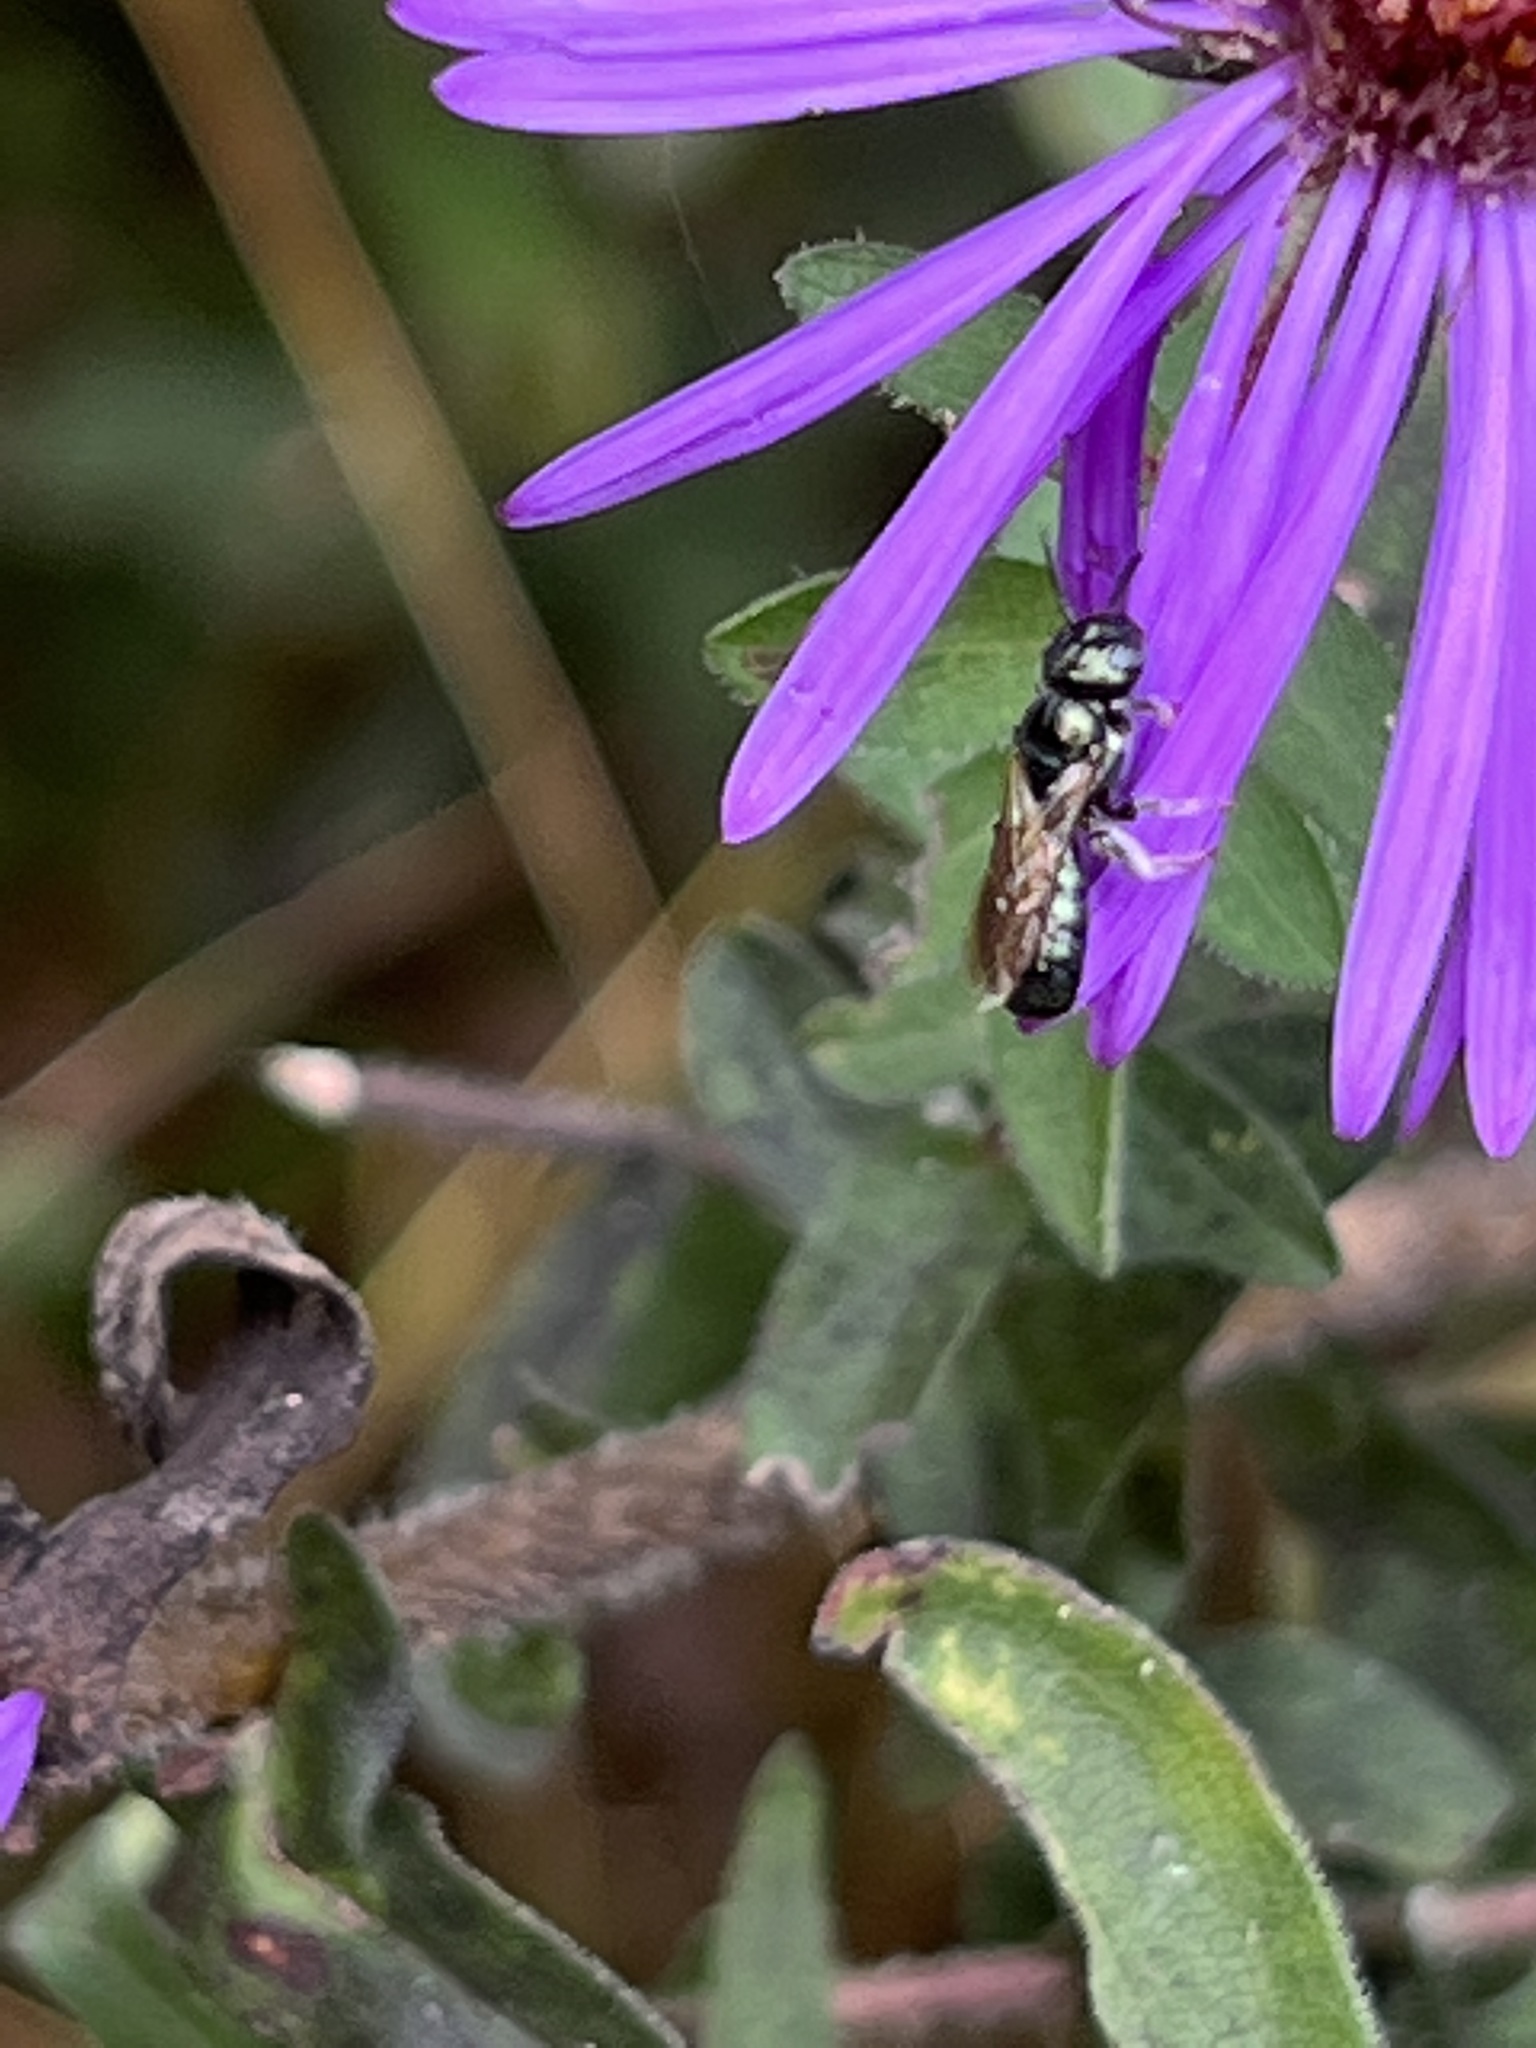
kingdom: Animalia
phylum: Arthropoda
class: Insecta
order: Hymenoptera
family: Apidae
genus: Zadontomerus
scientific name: Zadontomerus
